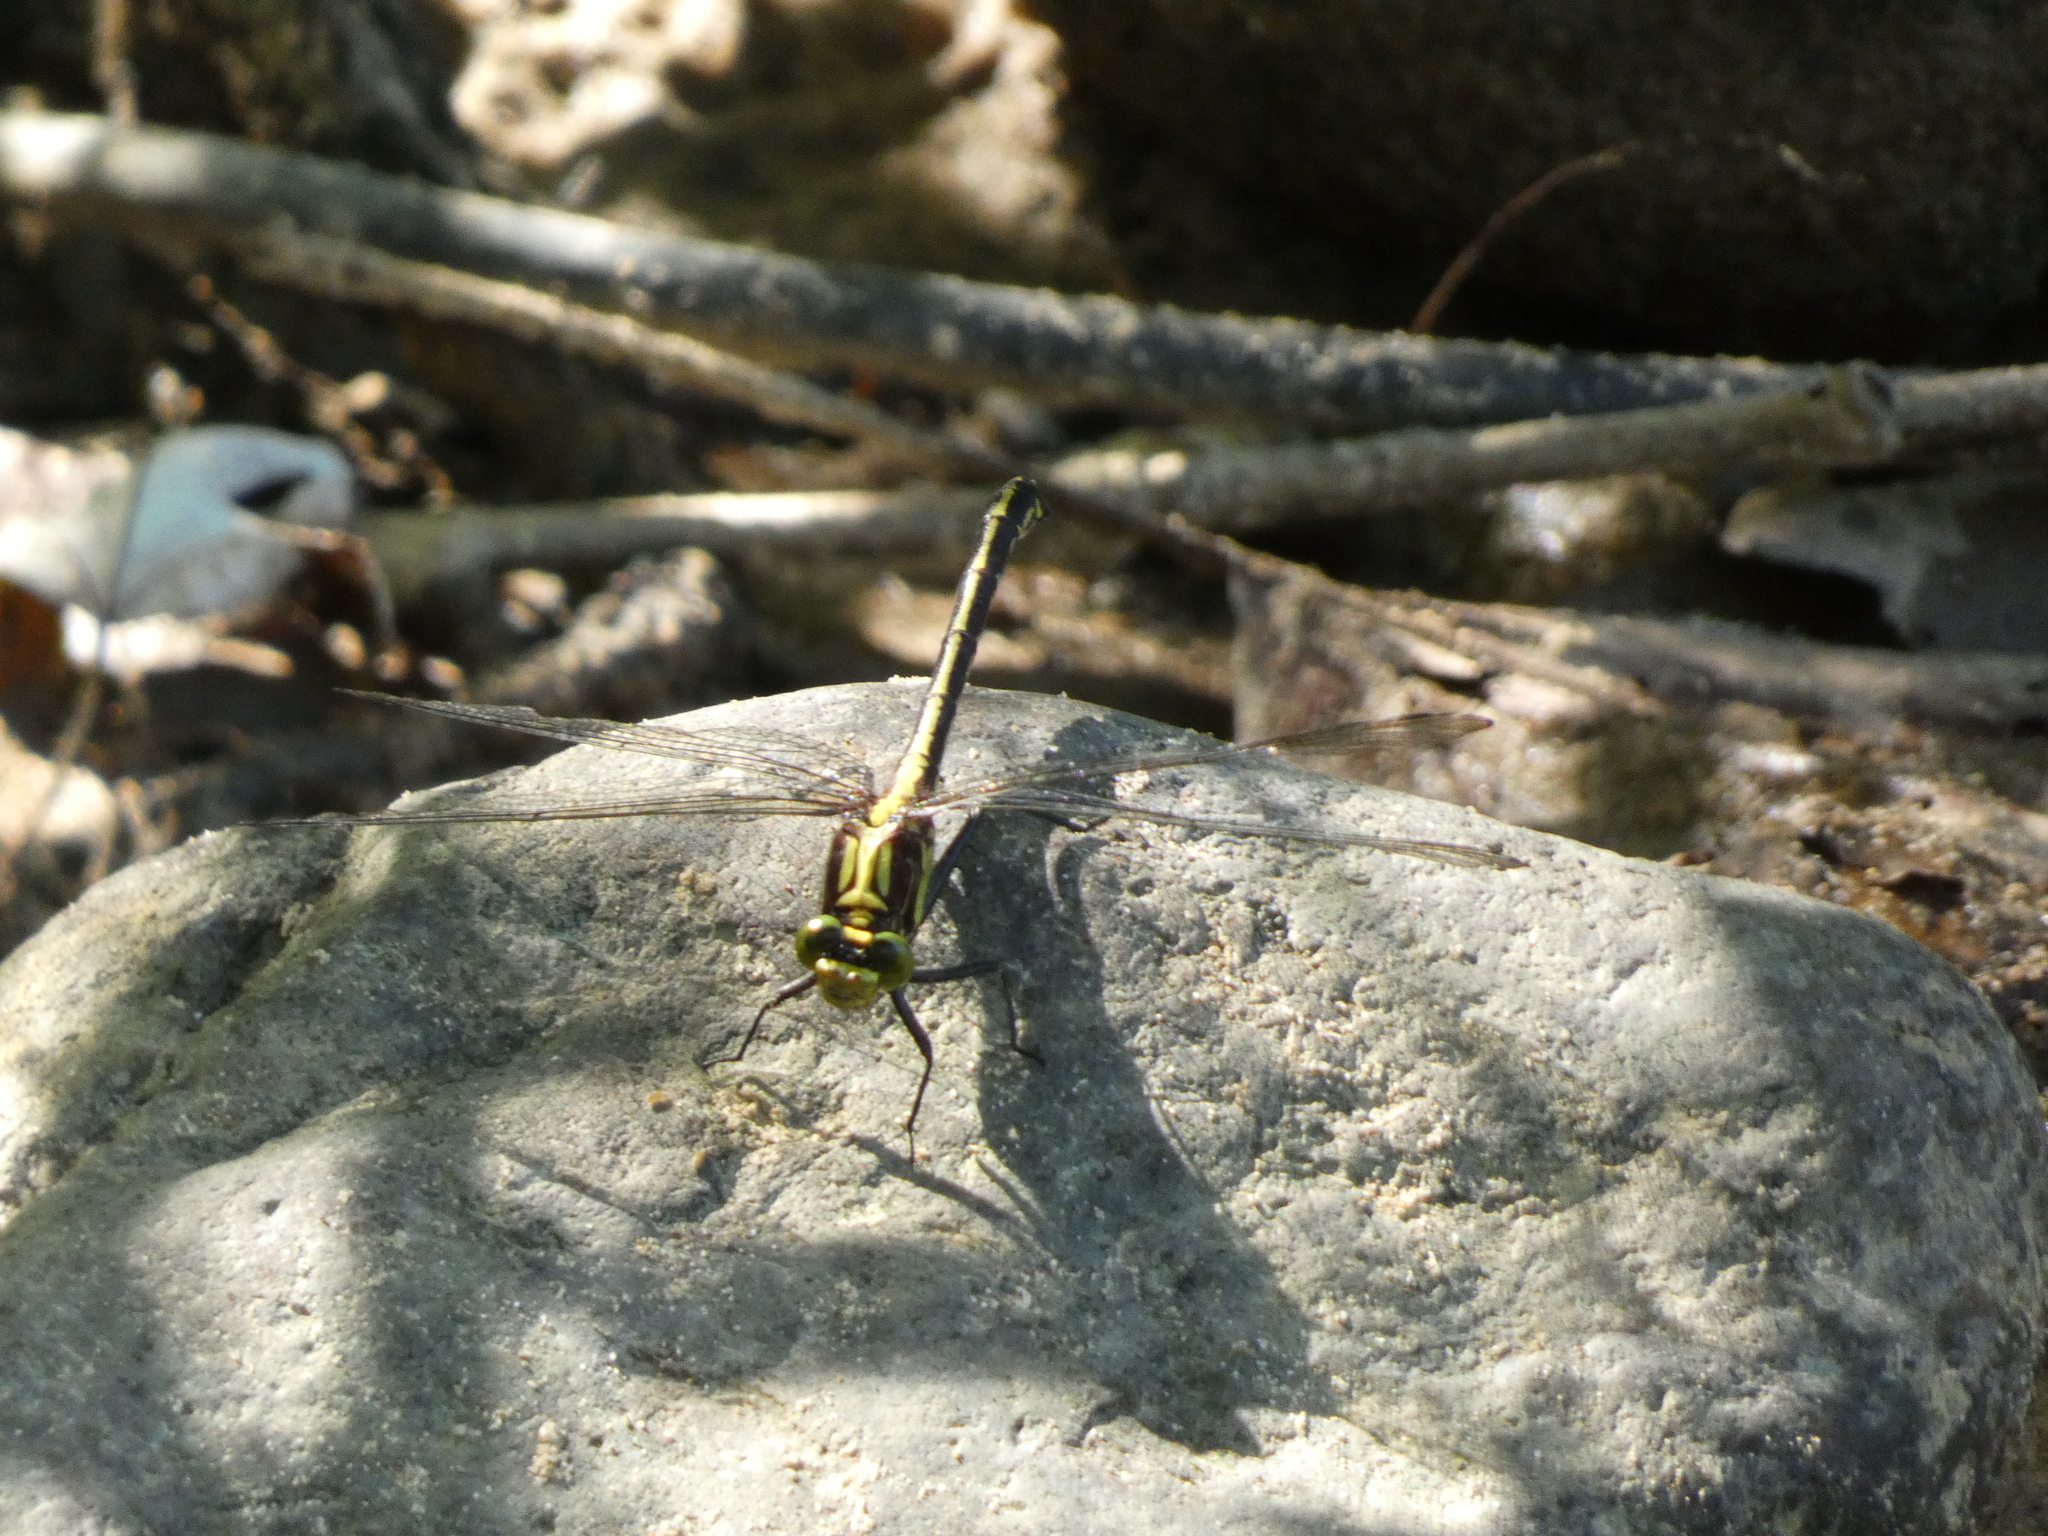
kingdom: Animalia
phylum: Arthropoda
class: Insecta
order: Odonata
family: Gomphidae
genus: Dromogomphus
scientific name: Dromogomphus spinosus
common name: Black-shouldered spinyleg
